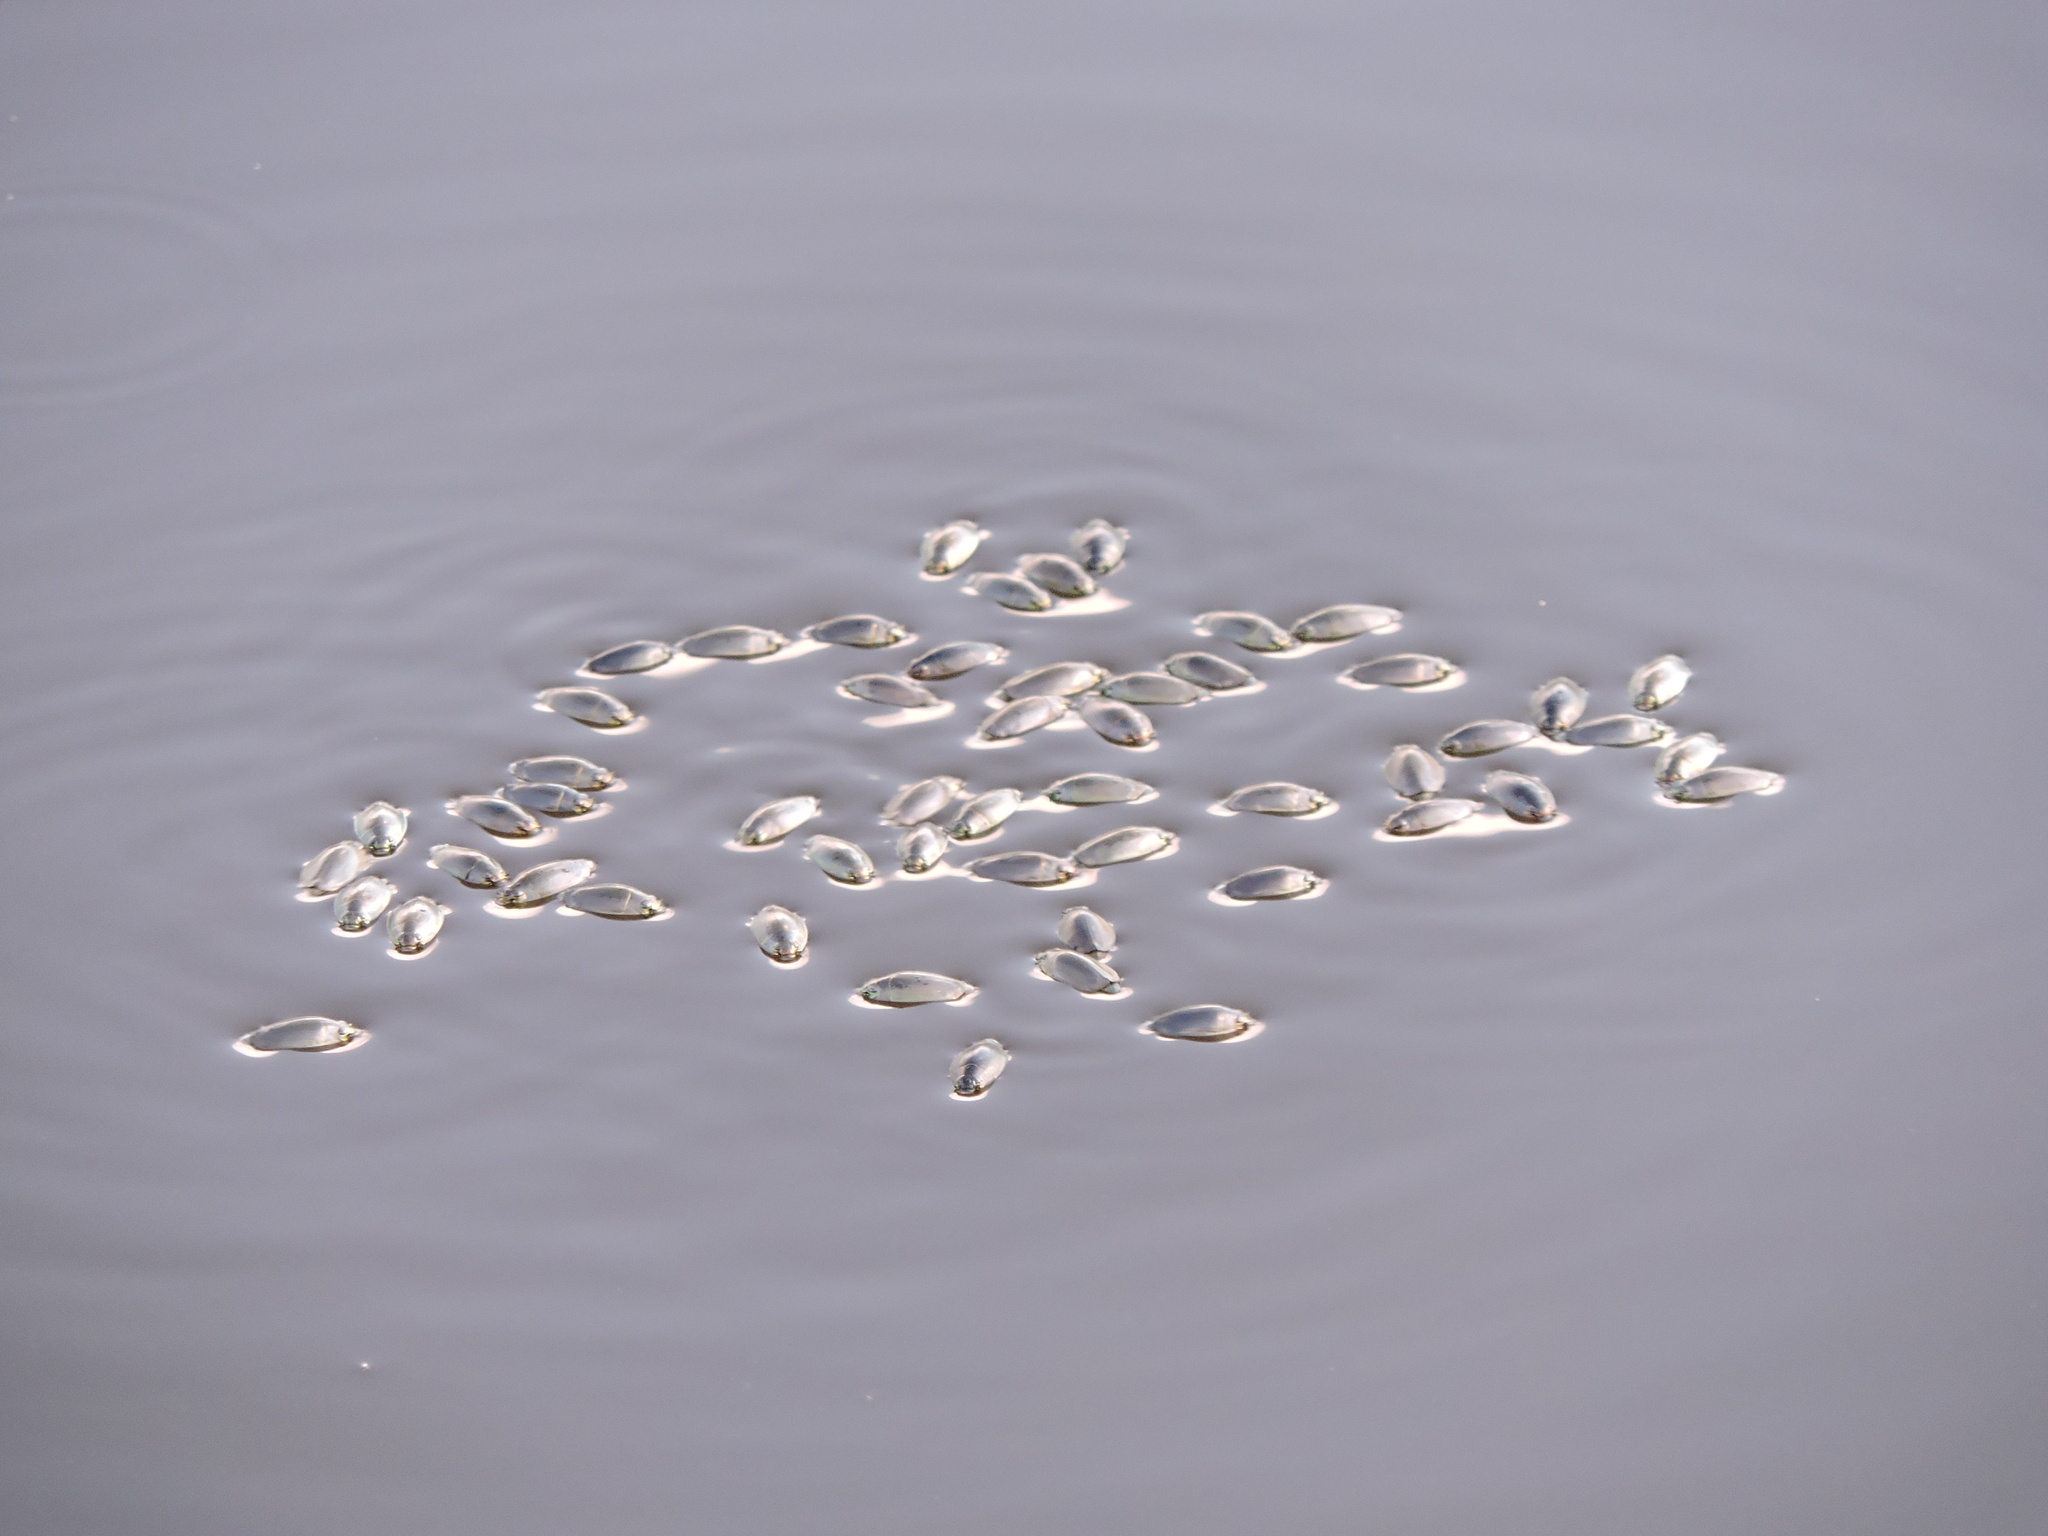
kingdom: Animalia
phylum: Arthropoda
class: Insecta
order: Coleoptera
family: Gyrinidae
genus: Dineutus
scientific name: Dineutus
